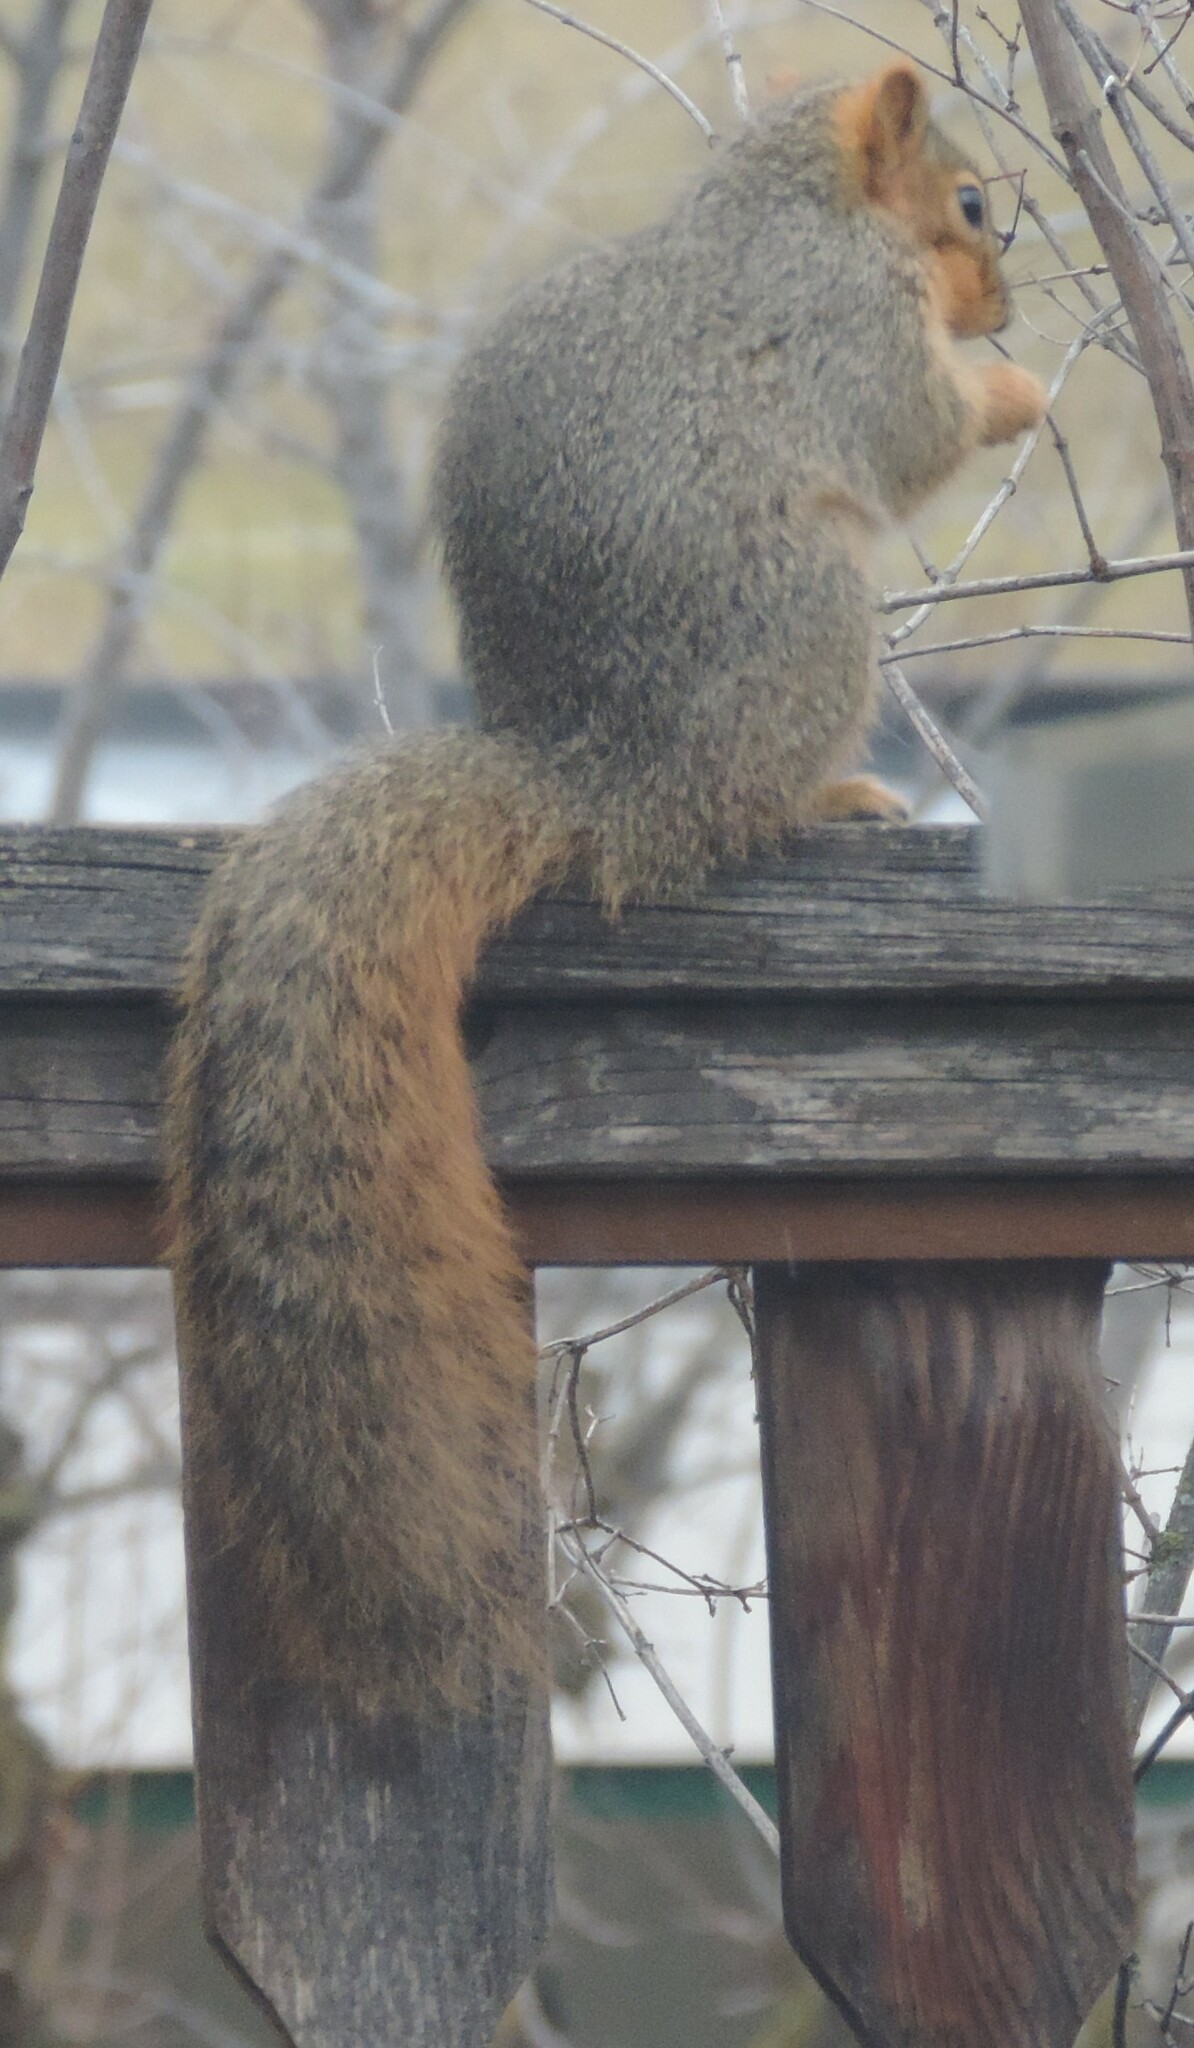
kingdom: Animalia
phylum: Chordata
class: Mammalia
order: Rodentia
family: Sciuridae
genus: Sciurus
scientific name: Sciurus niger
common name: Fox squirrel
